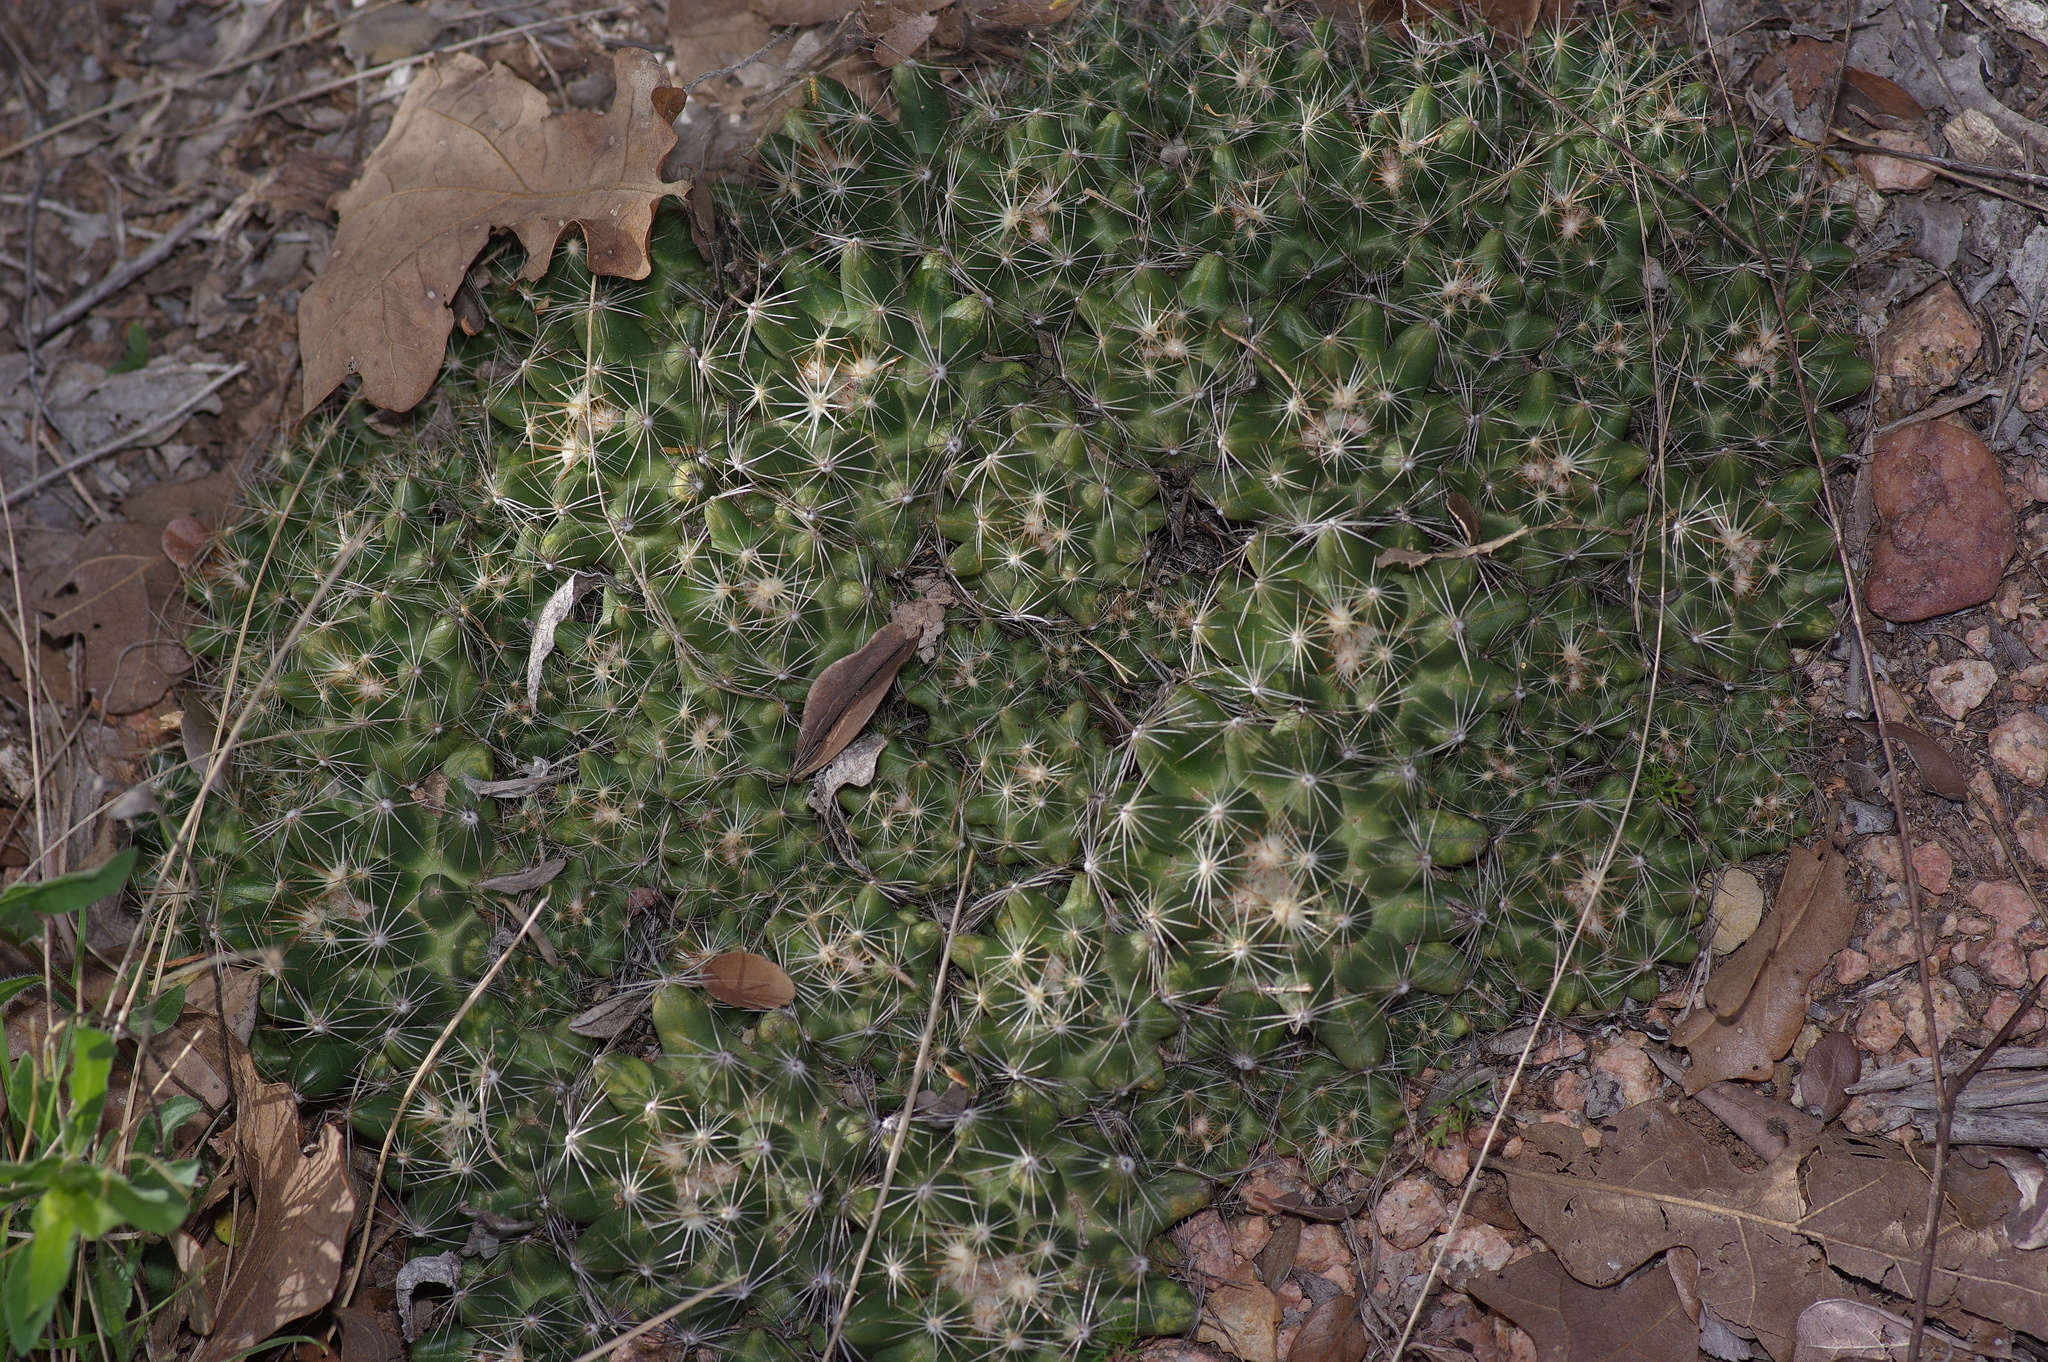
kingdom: Plantae
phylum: Tracheophyta
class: Magnoliopsida
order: Caryophyllales
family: Cactaceae
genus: Pelecyphora
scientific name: Pelecyphora missouriensis
